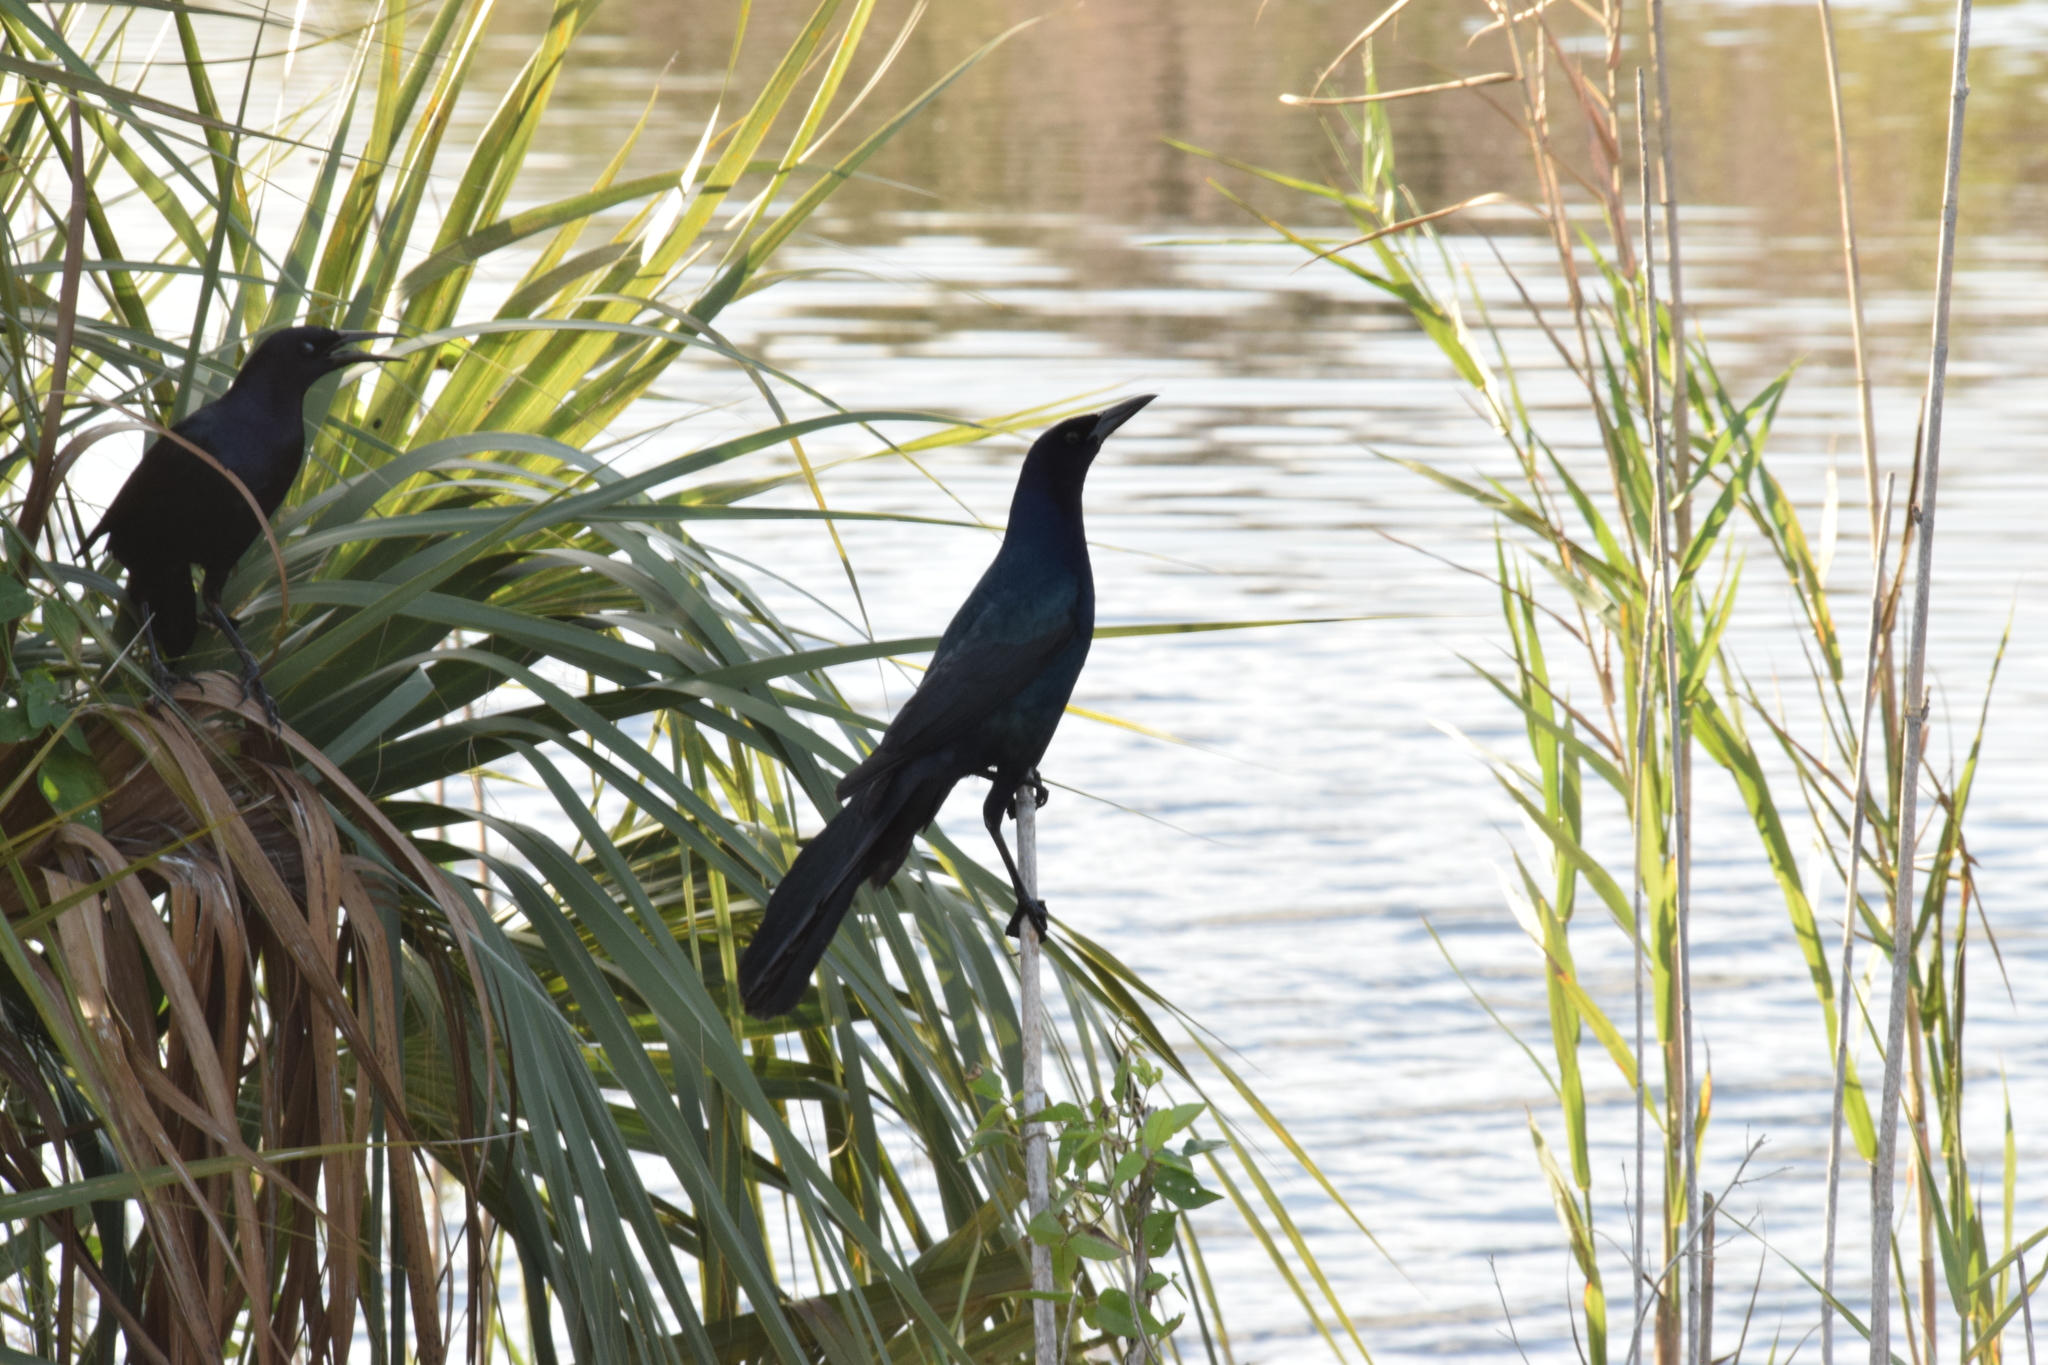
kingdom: Animalia
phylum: Chordata
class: Aves
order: Passeriformes
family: Icteridae
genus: Quiscalus
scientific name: Quiscalus major
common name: Boat-tailed grackle
